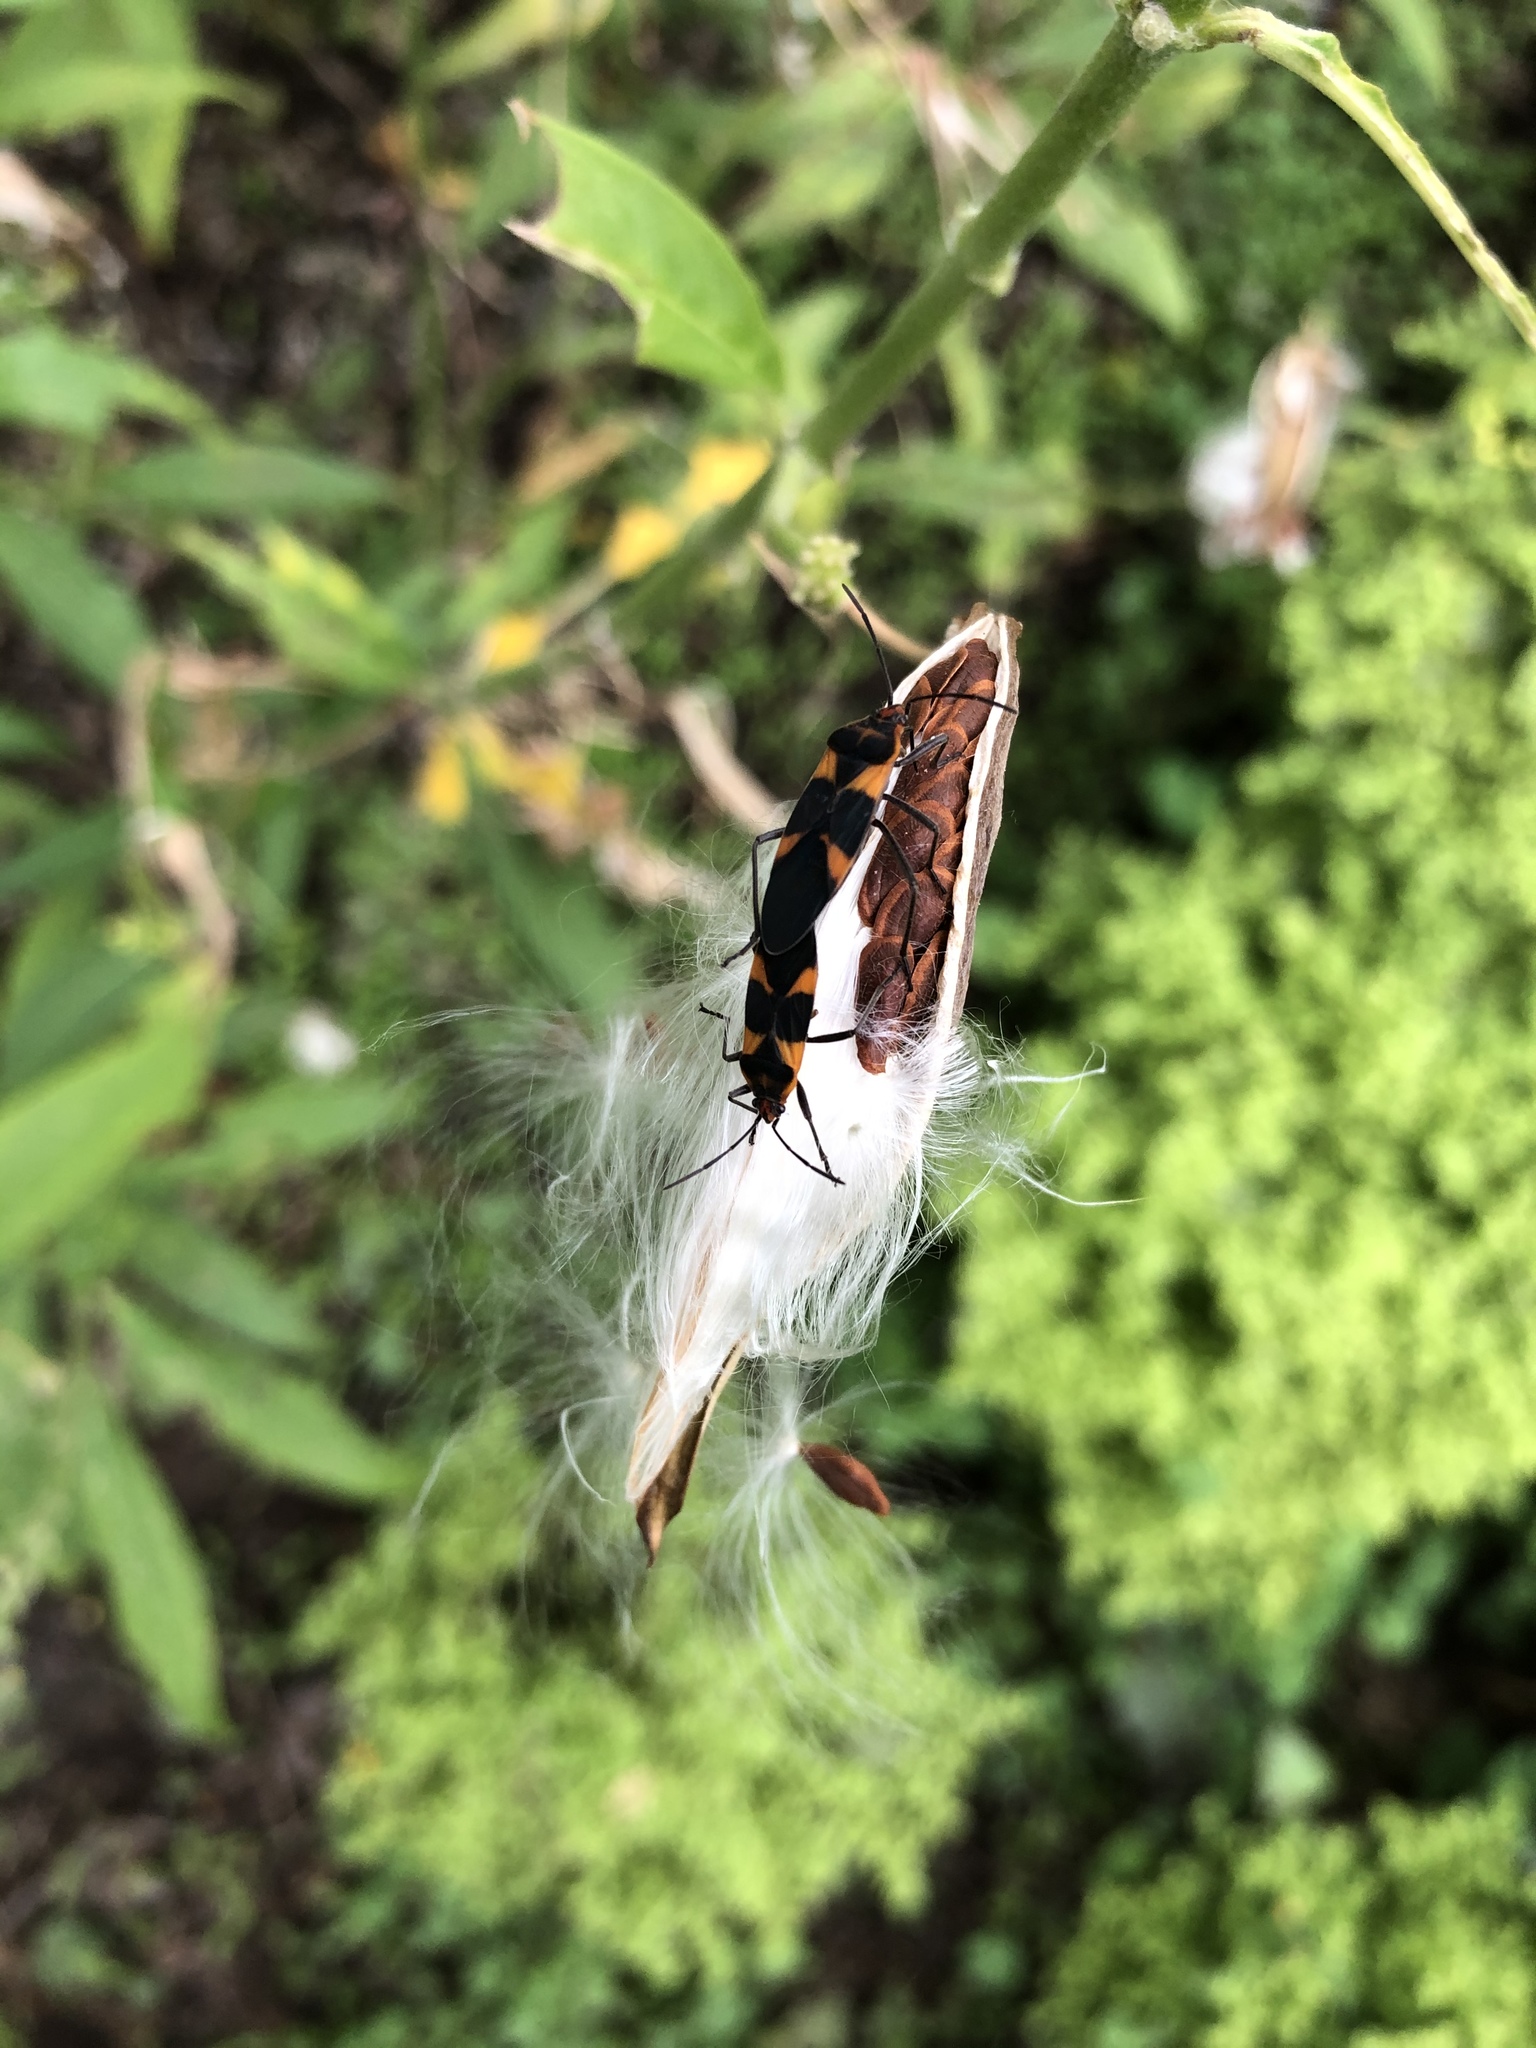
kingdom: Animalia
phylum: Arthropoda
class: Insecta
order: Hemiptera
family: Lygaeidae
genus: Oncopeltus
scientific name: Oncopeltus zonatus
